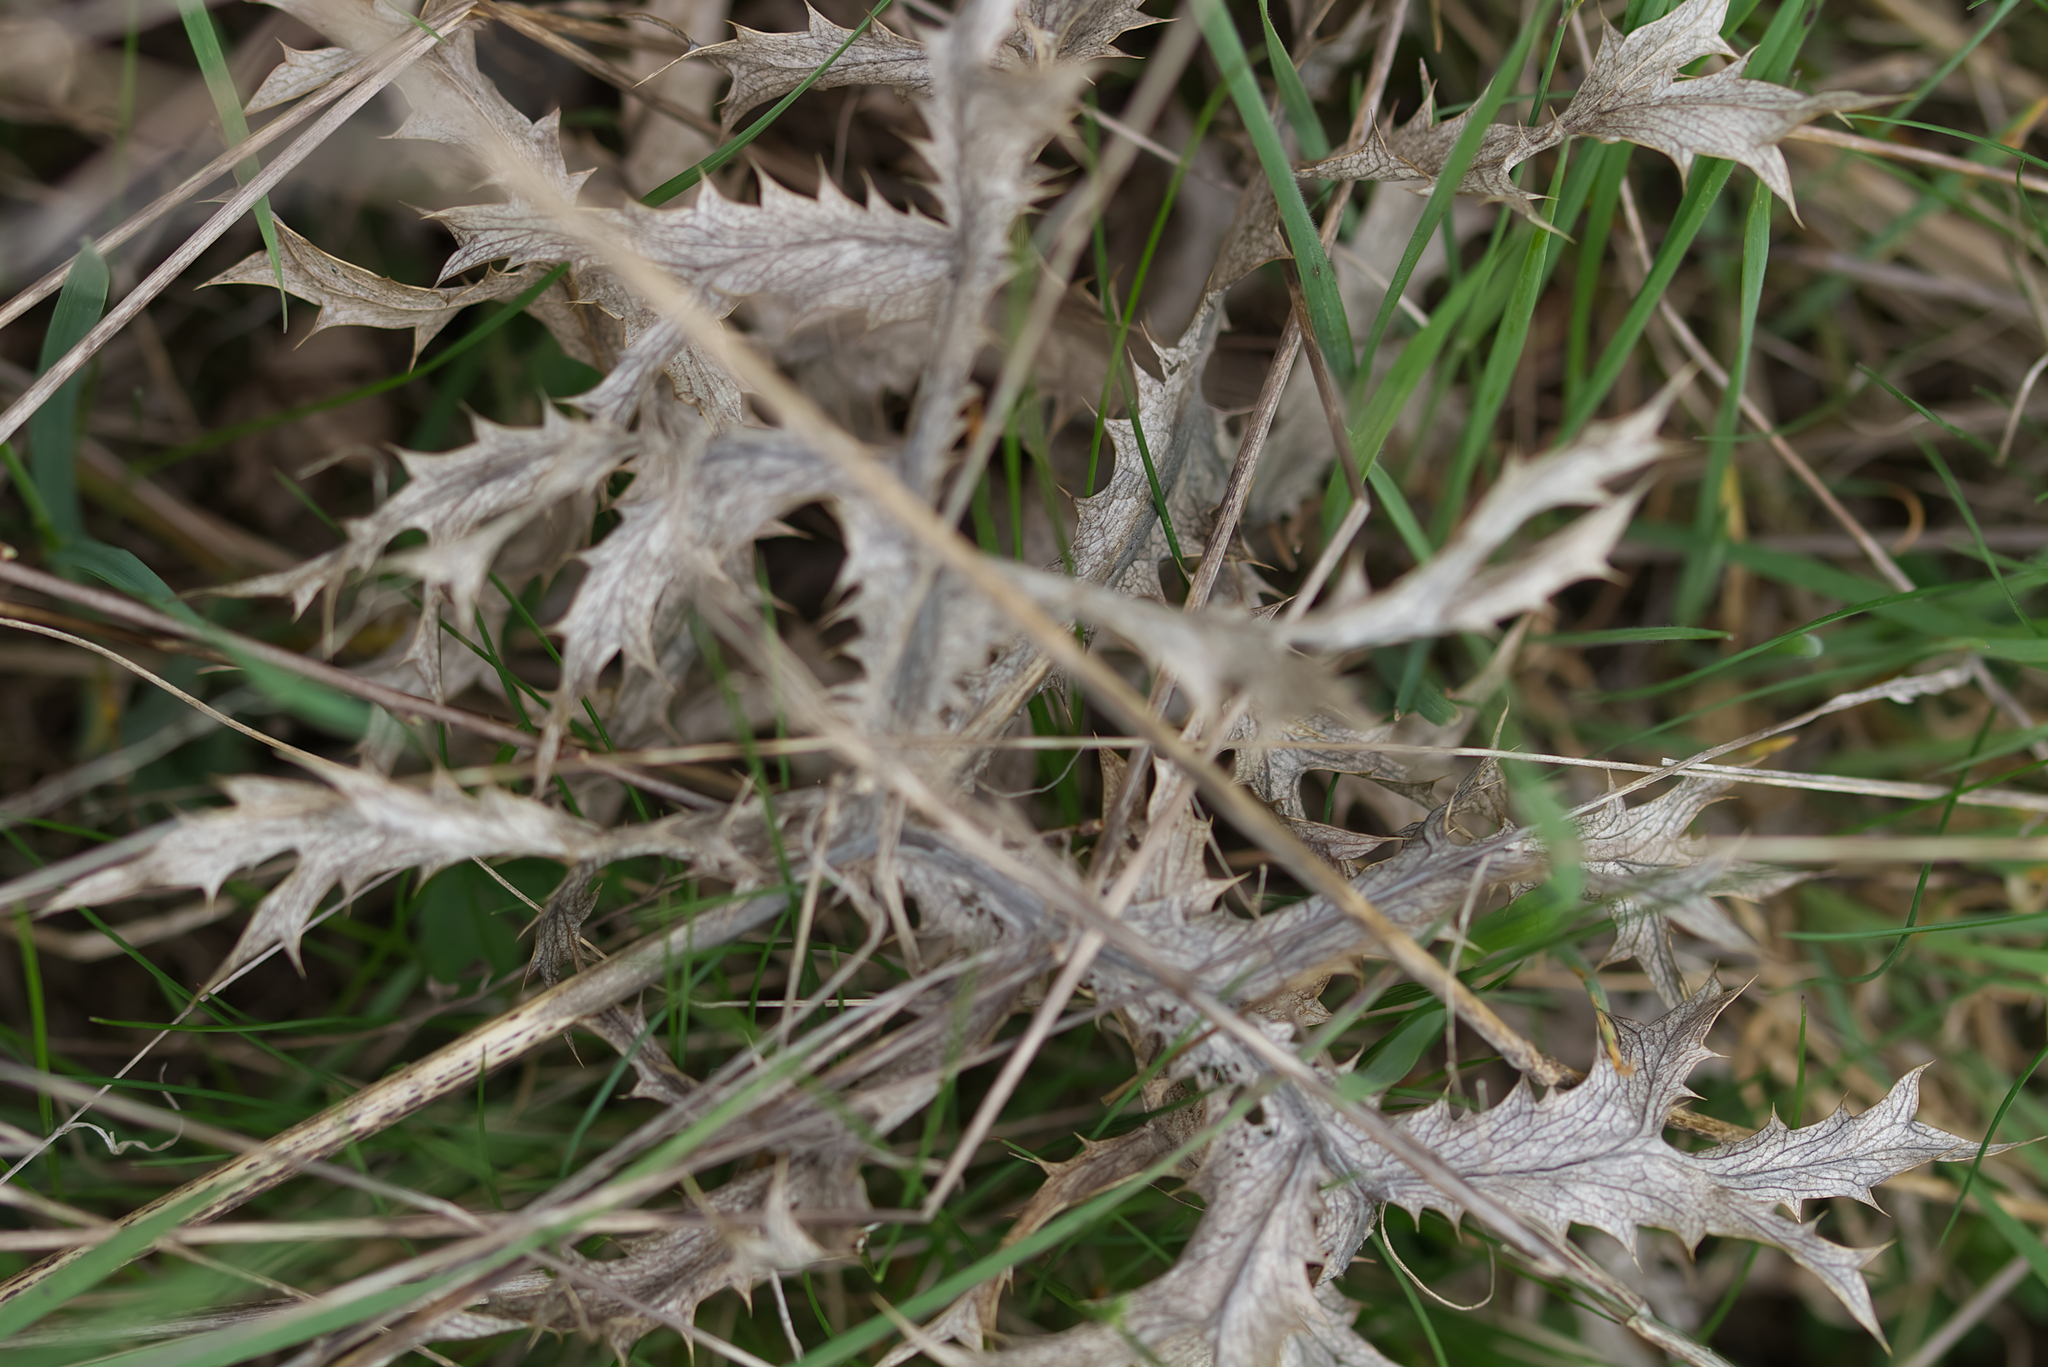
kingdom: Plantae
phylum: Tracheophyta
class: Magnoliopsida
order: Apiales
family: Apiaceae
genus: Eryngium
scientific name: Eryngium campestre
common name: Field eryngo
